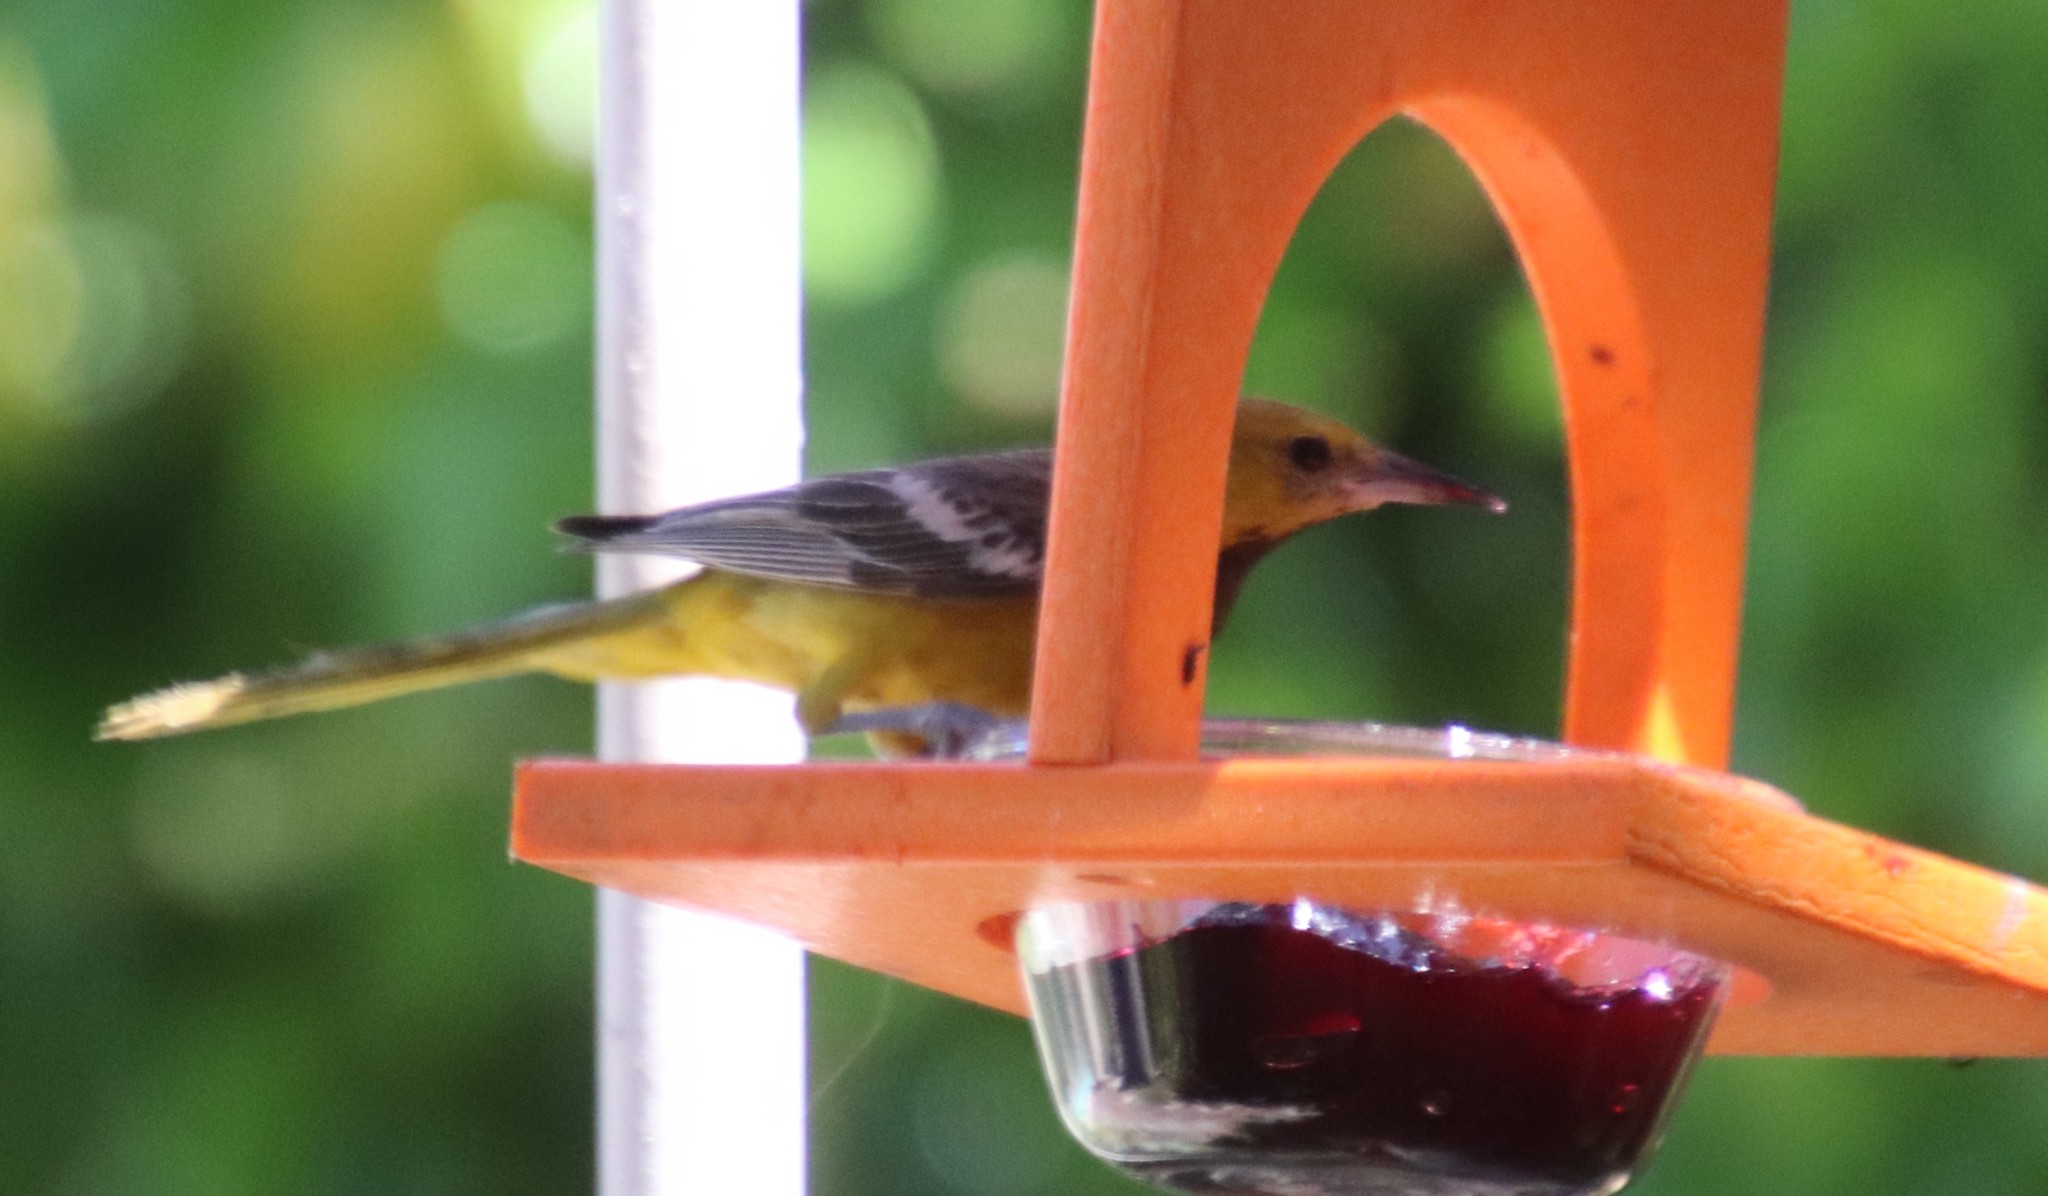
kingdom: Animalia
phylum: Chordata
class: Aves
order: Passeriformes
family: Icteridae
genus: Icterus
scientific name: Icterus cucullatus
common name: Hooded oriole
